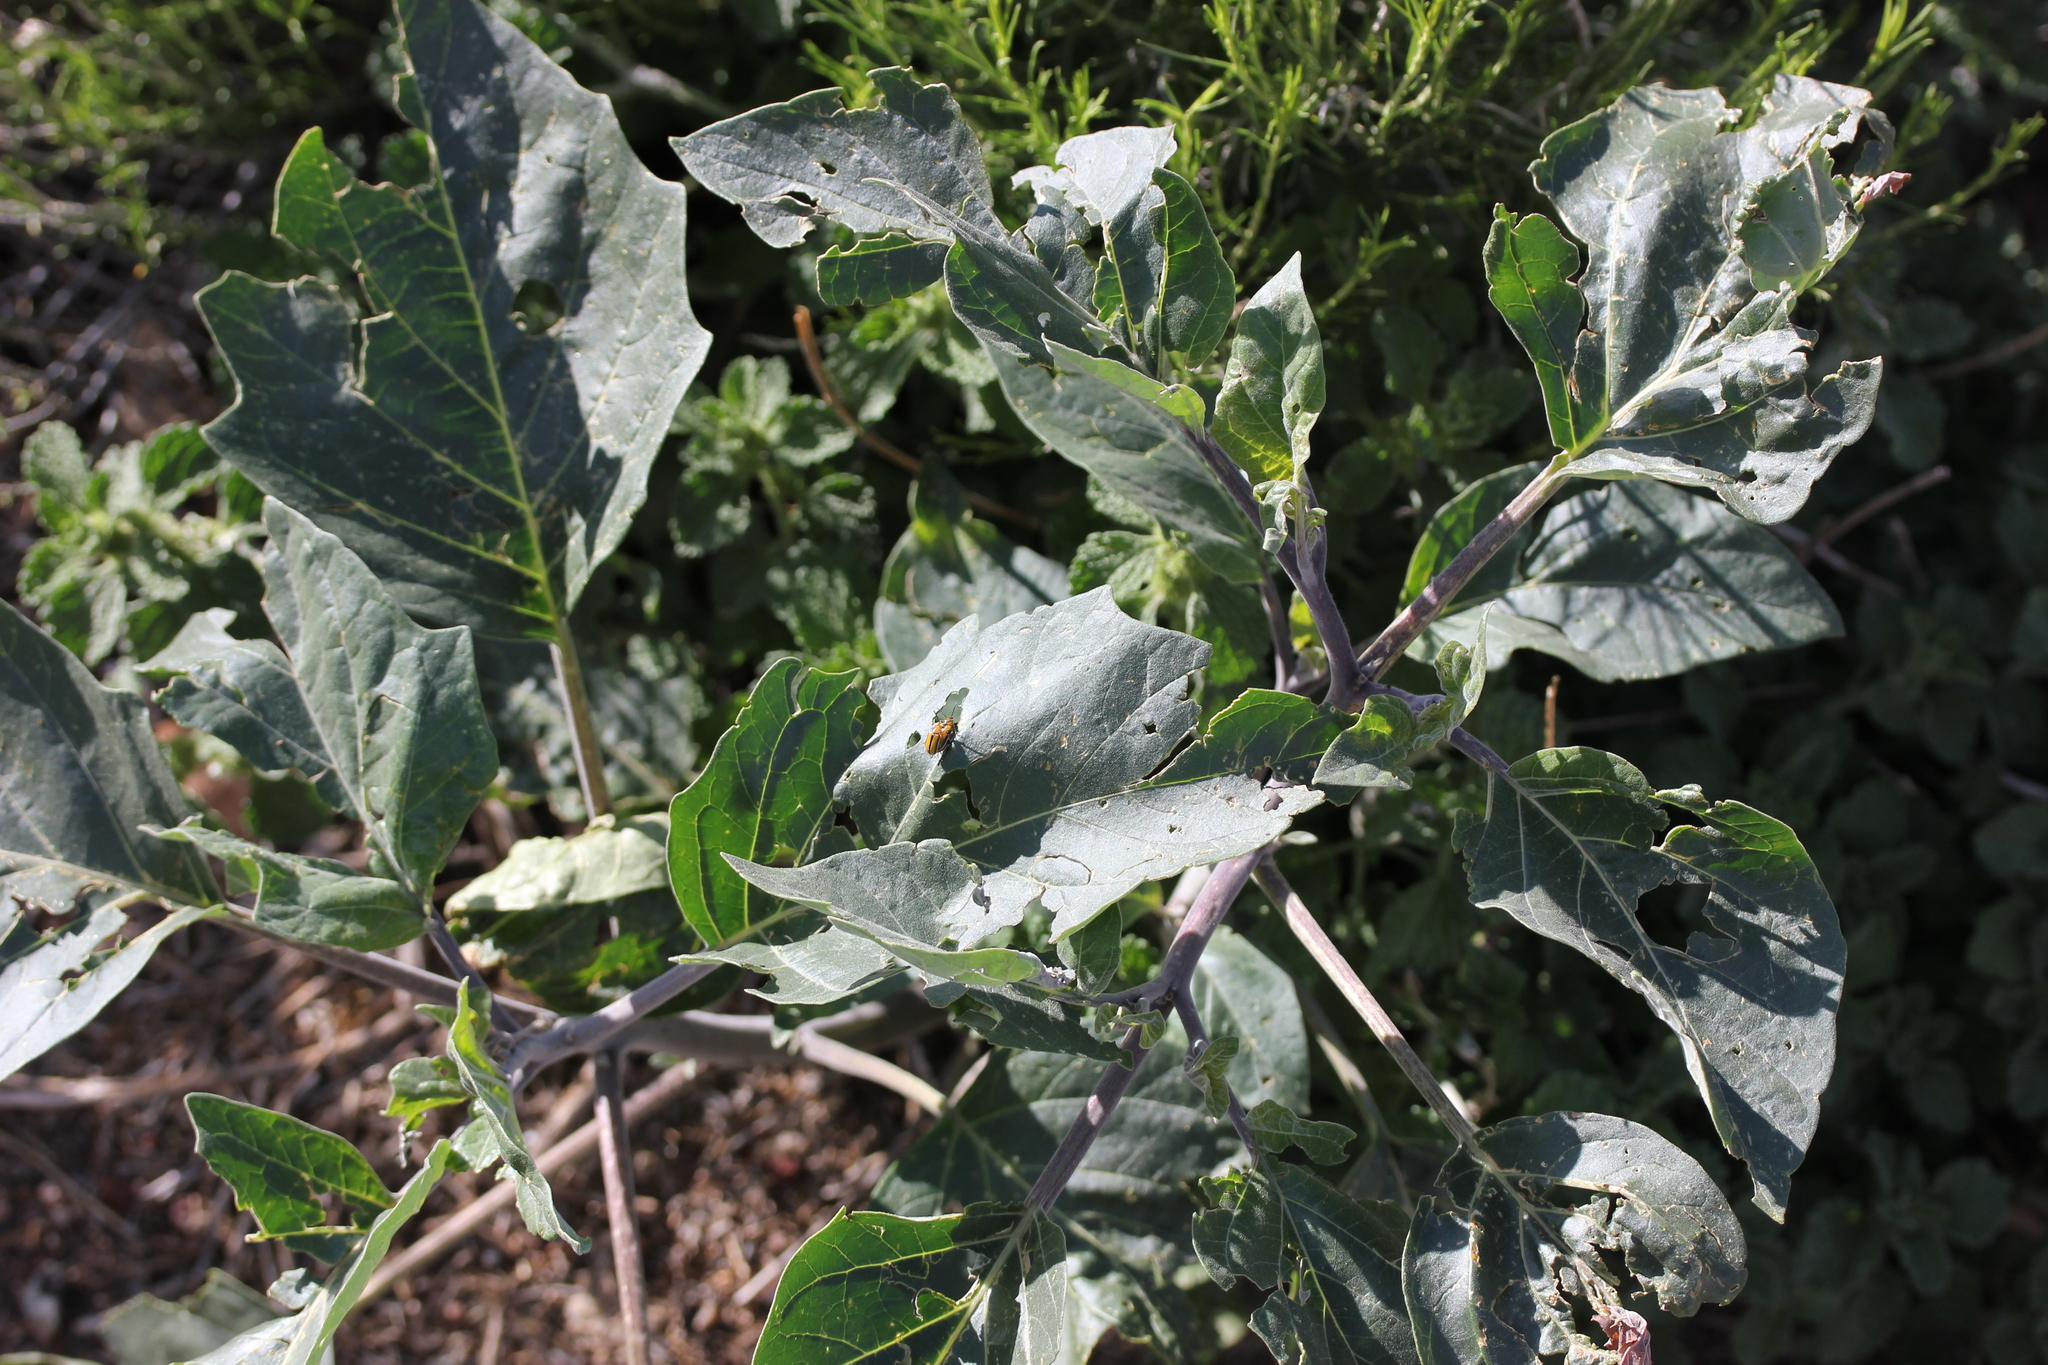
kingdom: Plantae
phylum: Tracheophyta
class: Magnoliopsida
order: Solanales
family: Solanaceae
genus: Datura
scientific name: Datura wrightii
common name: Sacred thorn-apple
